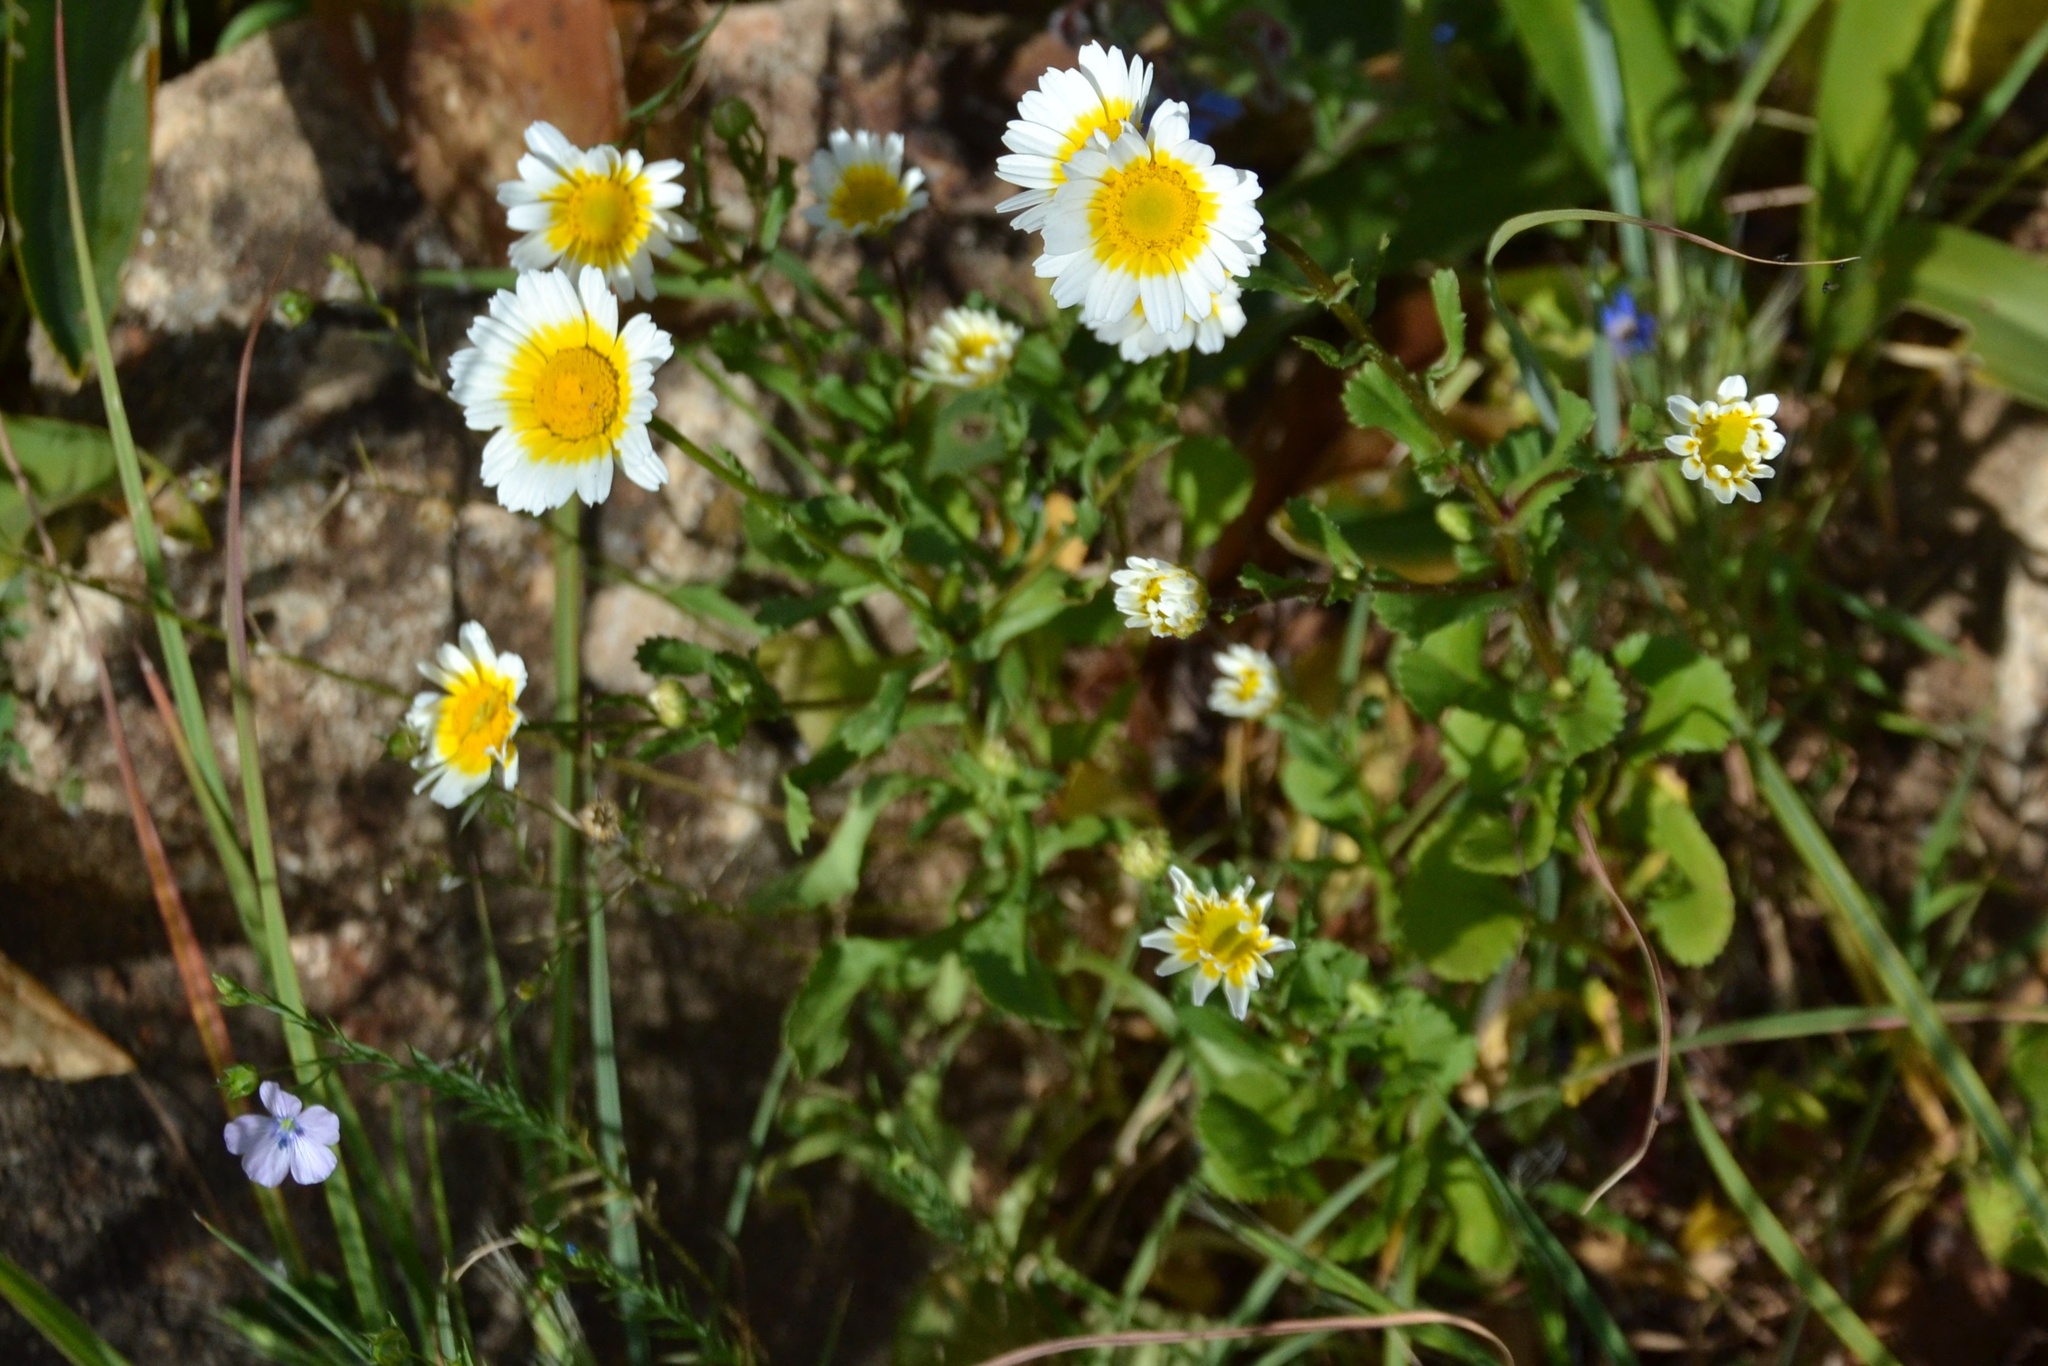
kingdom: Plantae
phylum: Tracheophyta
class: Magnoliopsida
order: Asterales
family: Asteraceae
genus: Coleostephus
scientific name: Coleostephus myconis
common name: Mediterranean marigold
